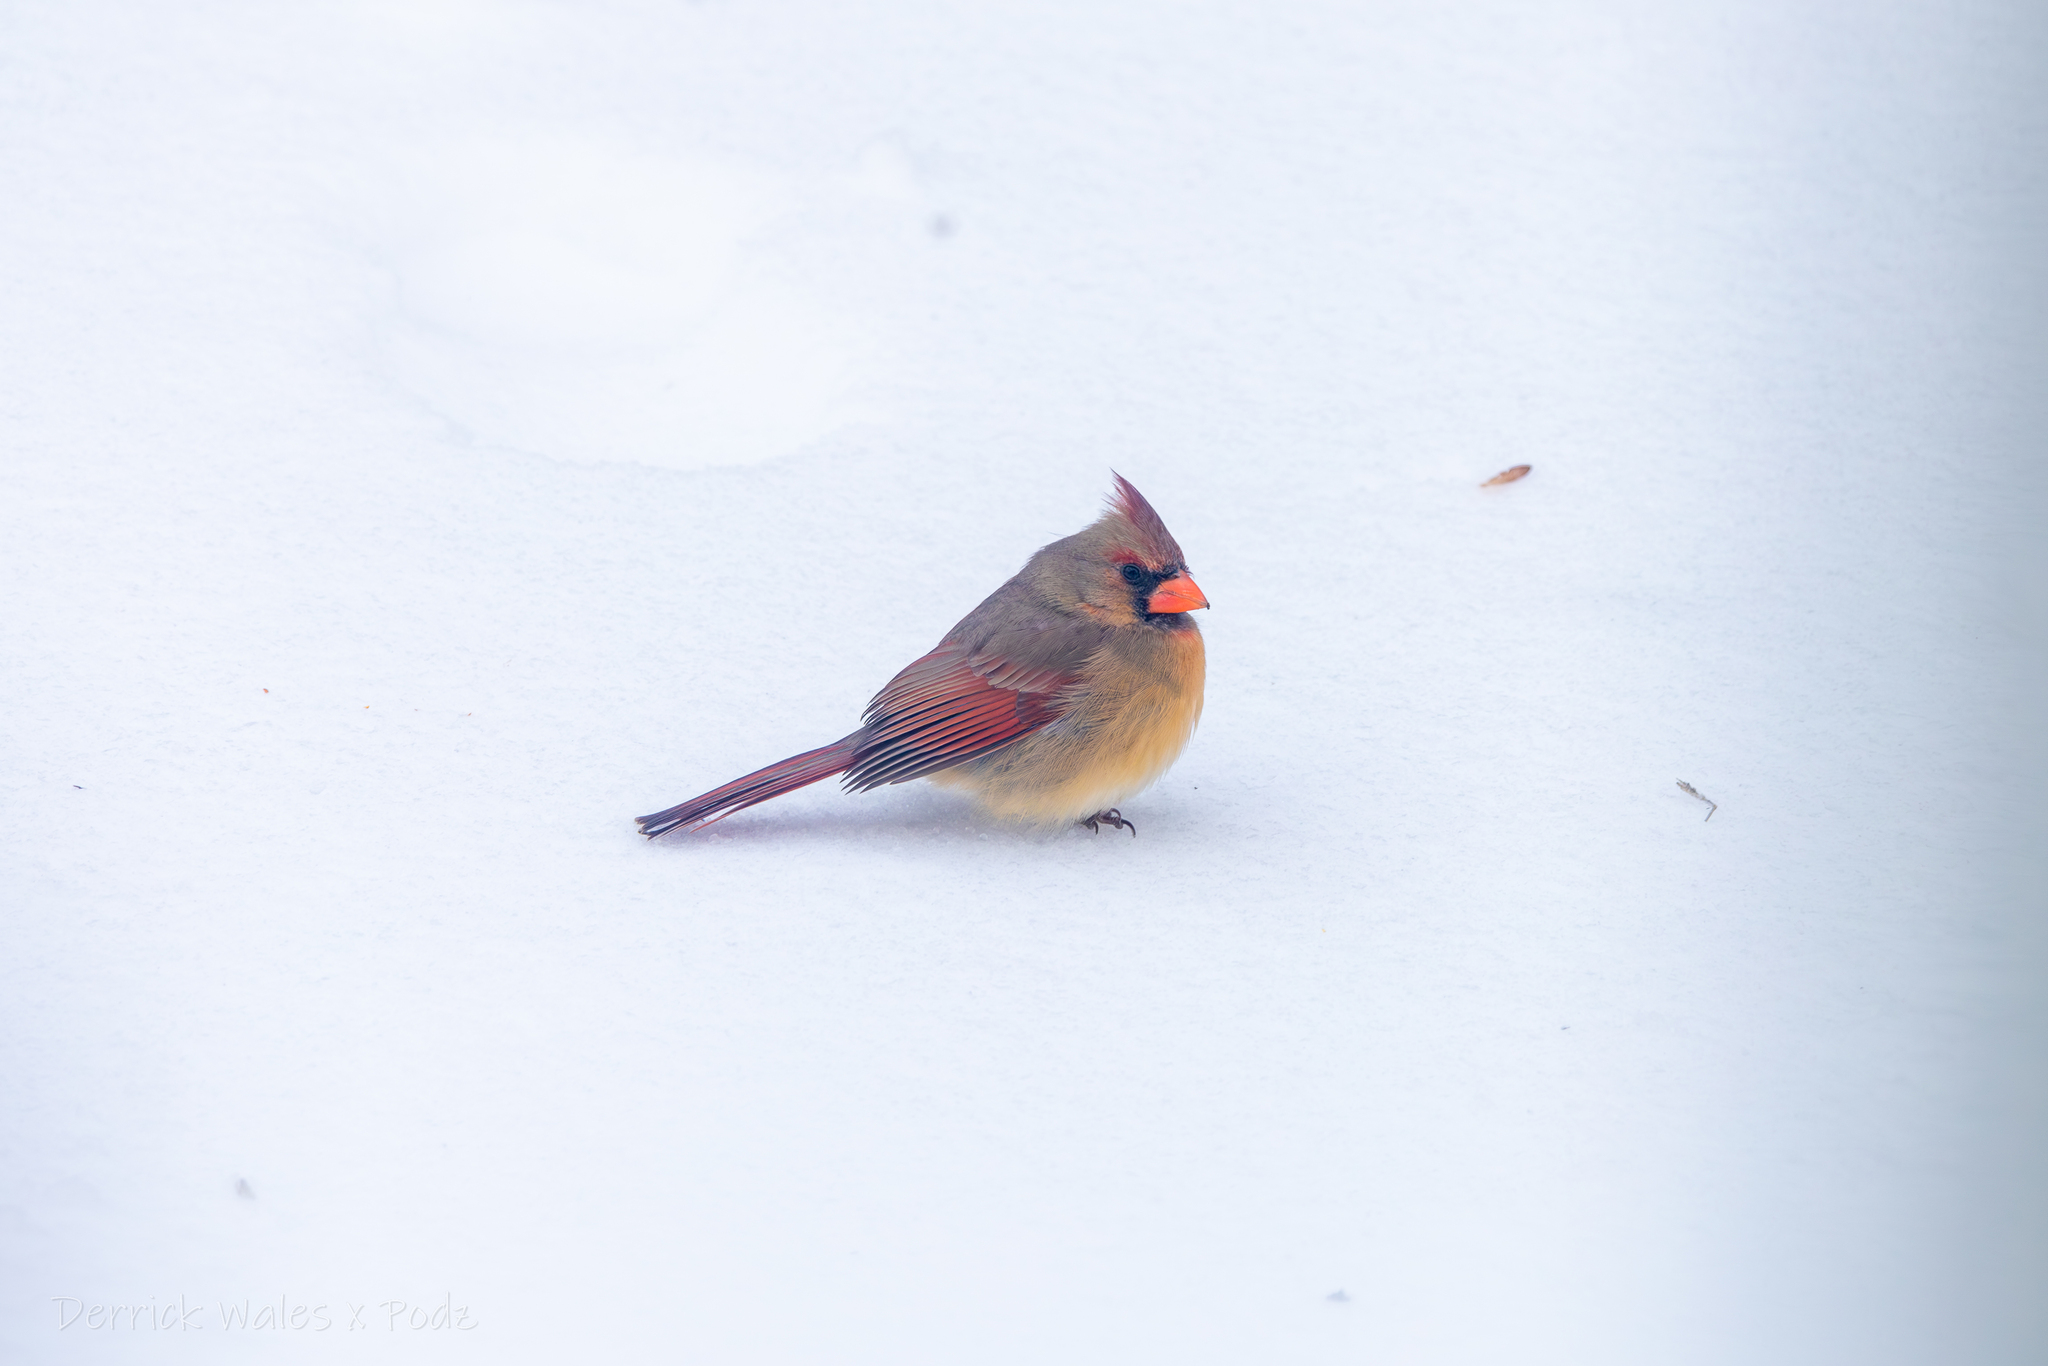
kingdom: Animalia
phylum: Chordata
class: Aves
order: Passeriformes
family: Cardinalidae
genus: Cardinalis
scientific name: Cardinalis cardinalis
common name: Northern cardinal
